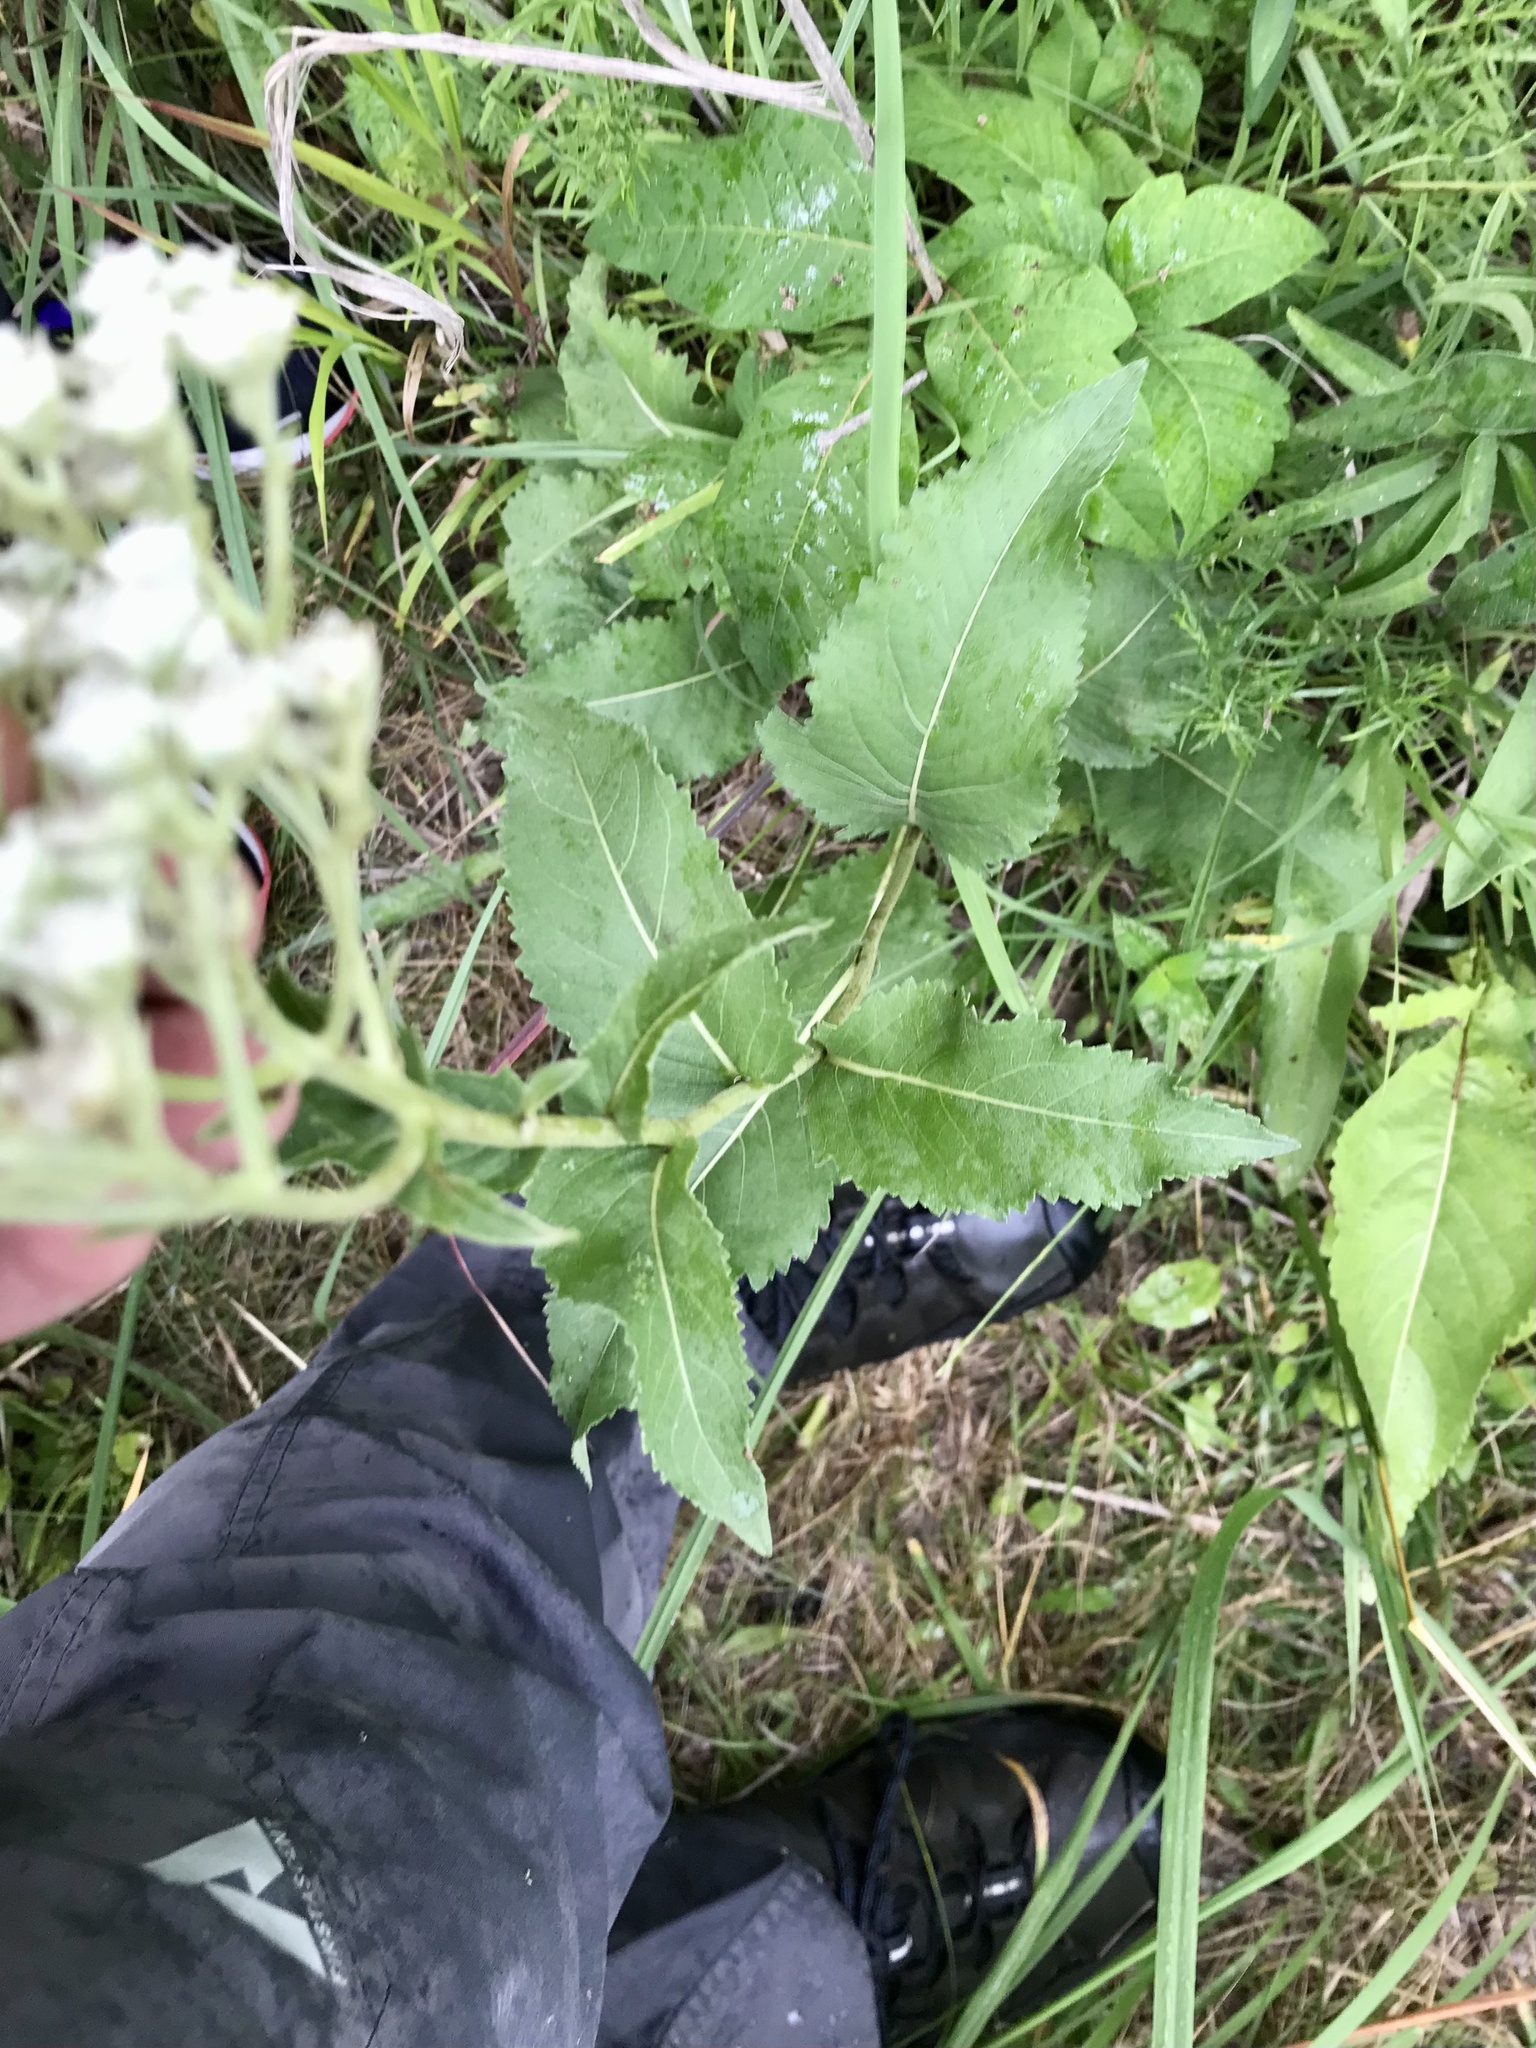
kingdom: Plantae
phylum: Tracheophyta
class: Magnoliopsida
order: Asterales
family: Asteraceae
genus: Parthenium
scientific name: Parthenium integrifolium
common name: American feverfew
